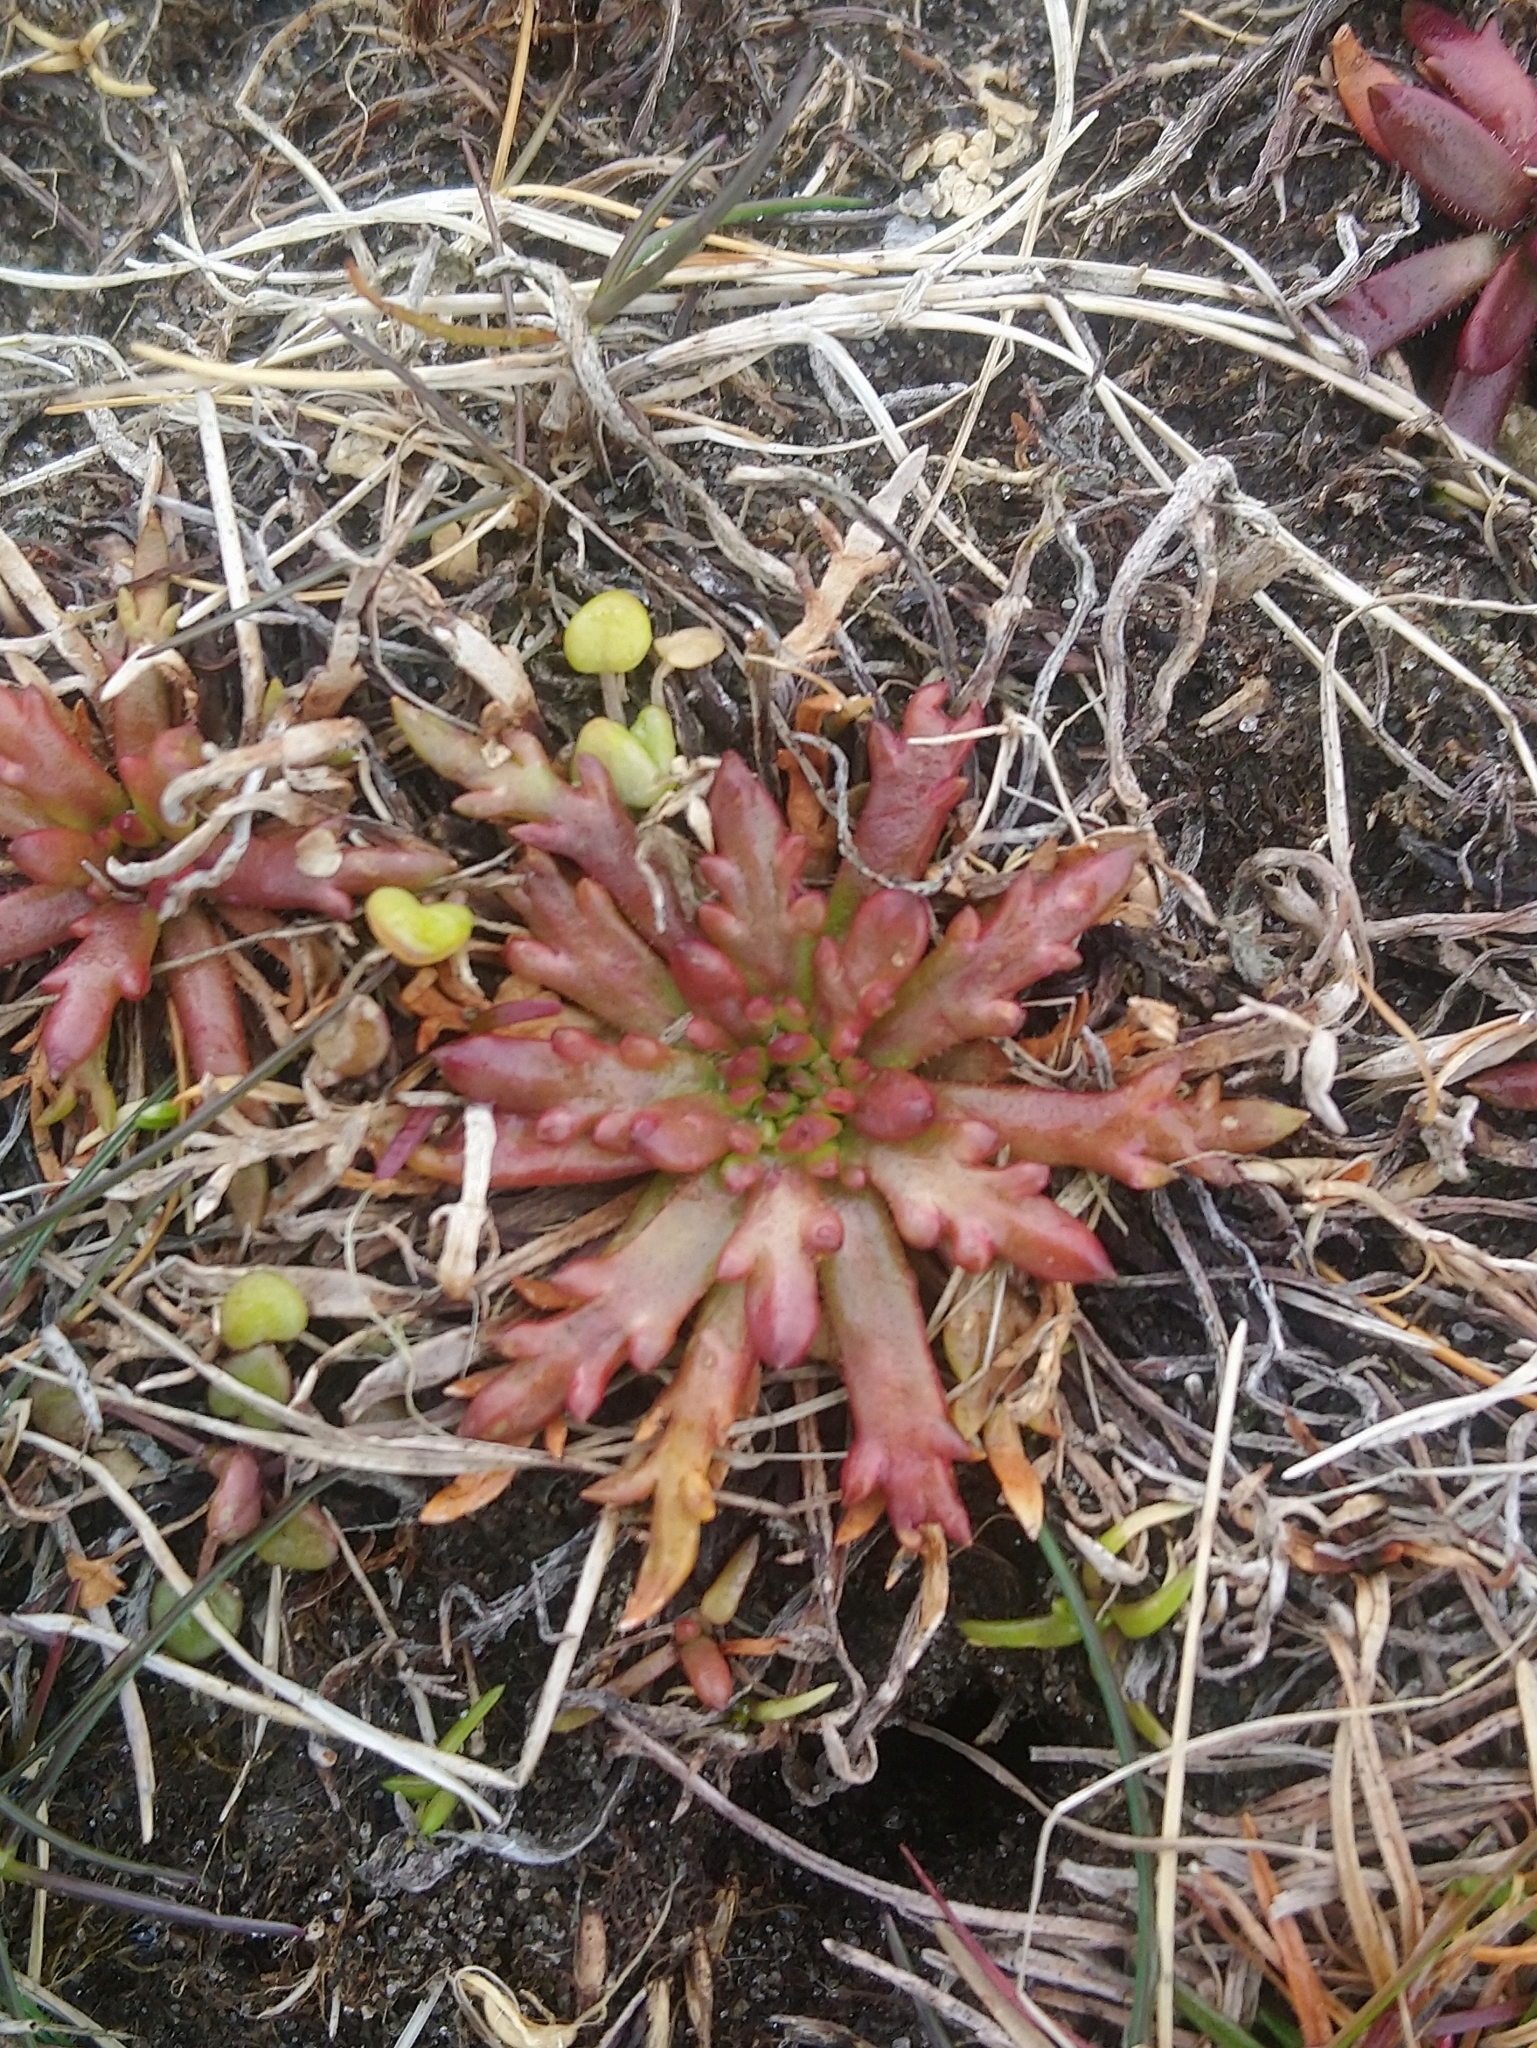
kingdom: Plantae
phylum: Tracheophyta
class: Magnoliopsida
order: Lamiales
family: Plantaginaceae
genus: Plantago
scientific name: Plantago coronopus
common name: Buck's-horn plantain
